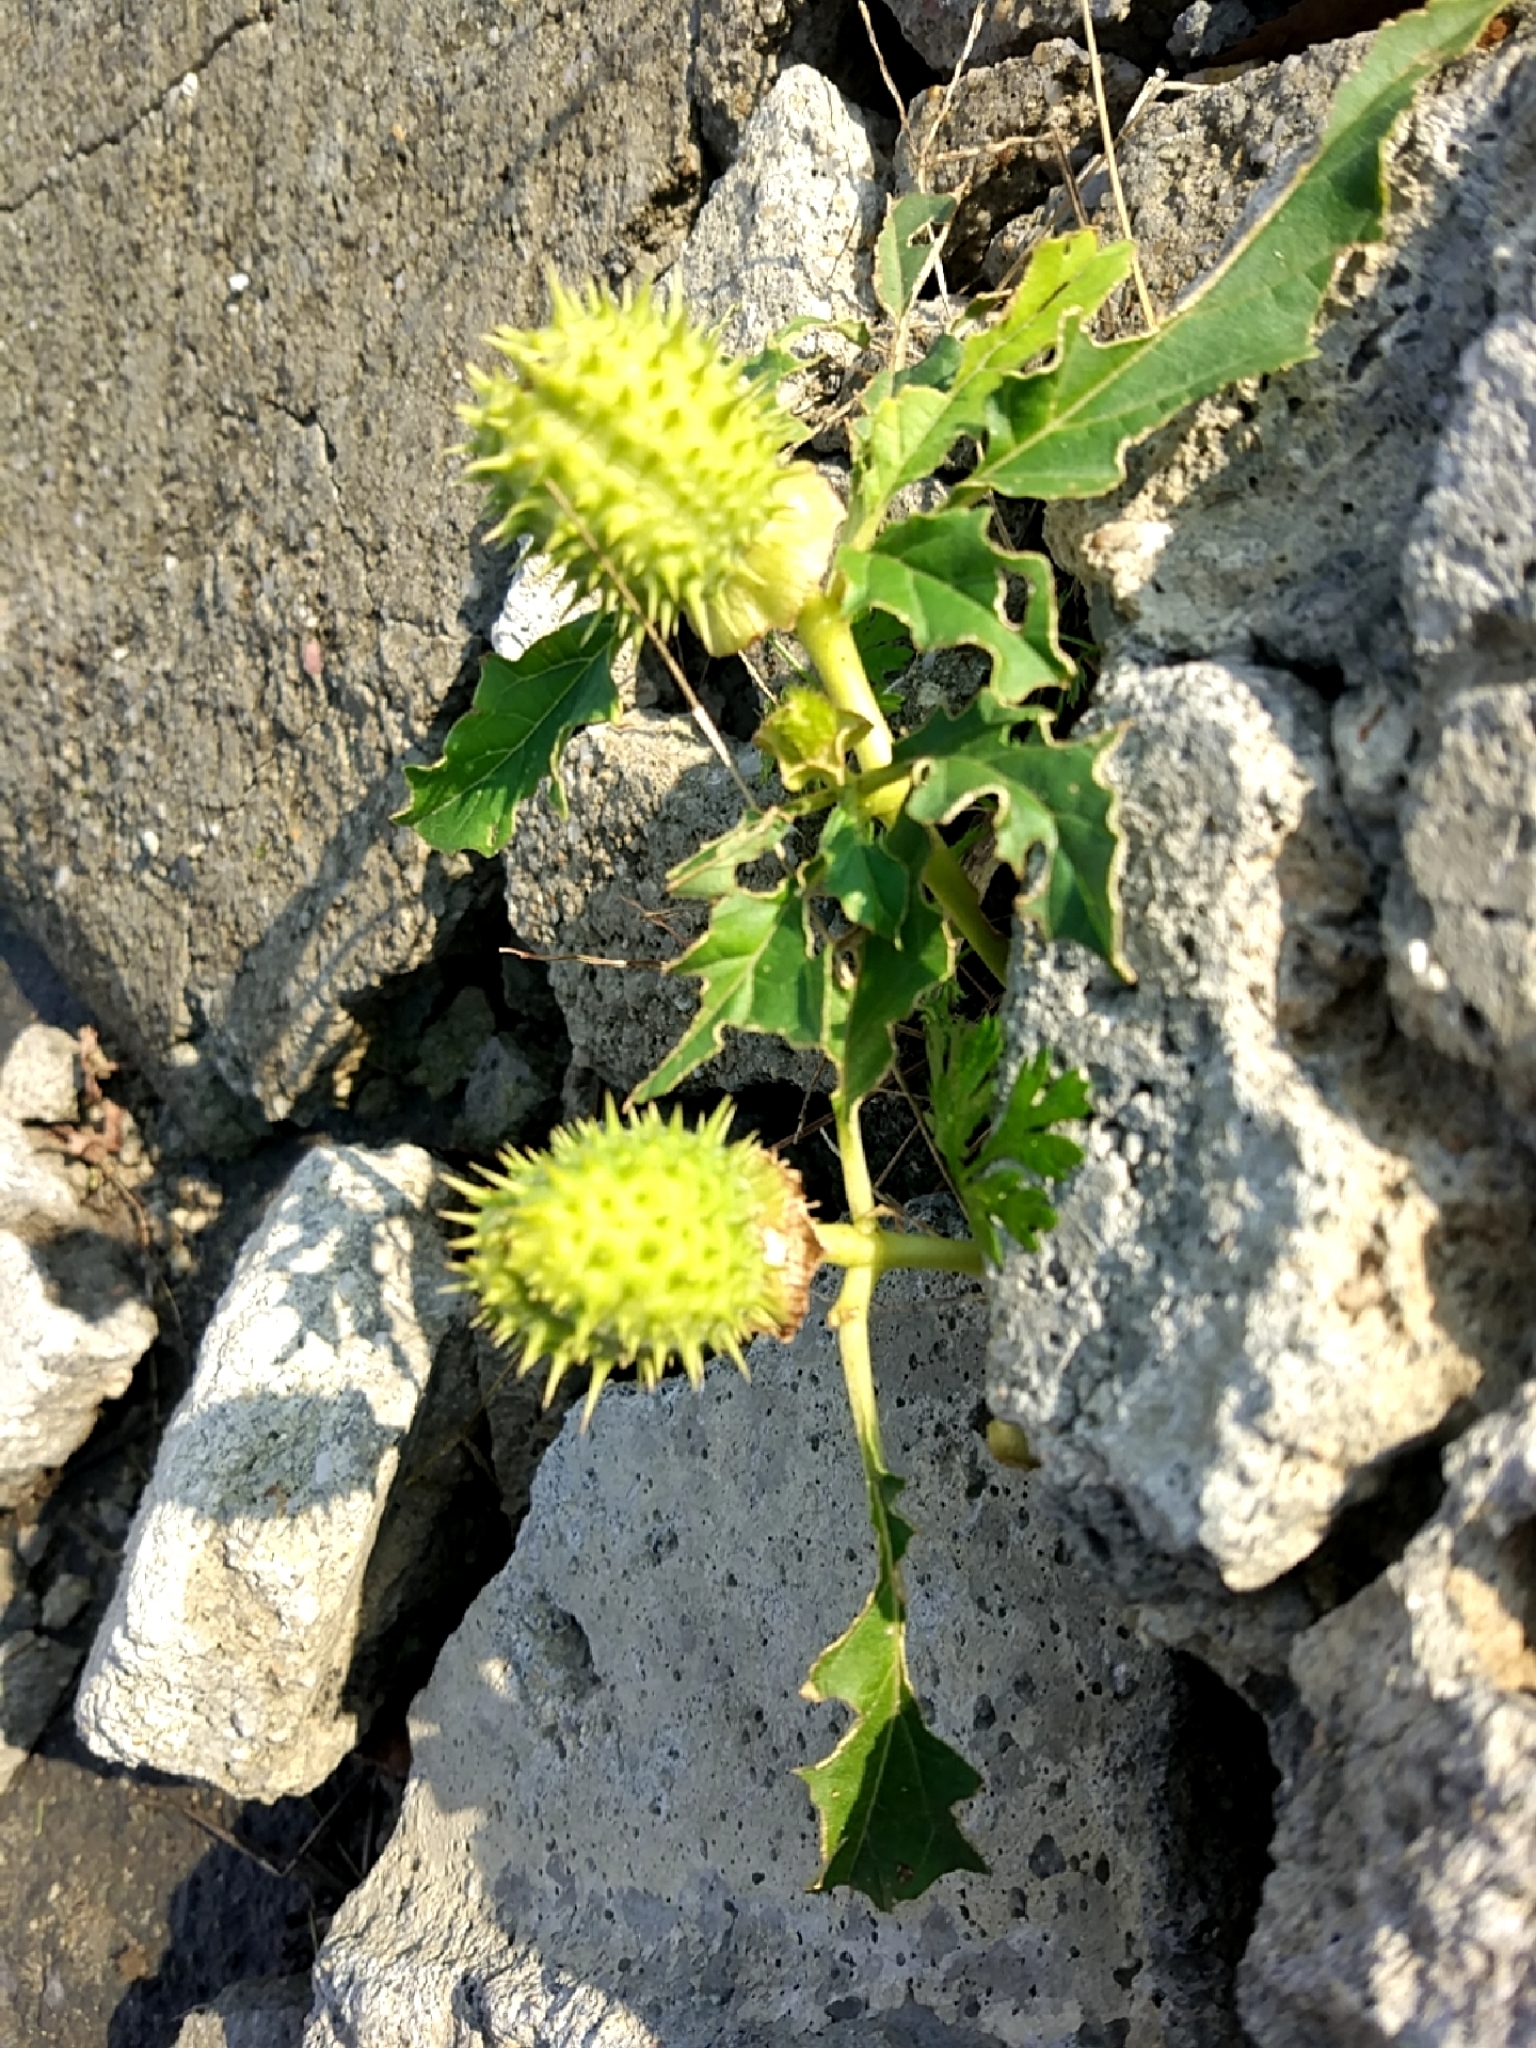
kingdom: Plantae
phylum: Tracheophyta
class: Magnoliopsida
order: Solanales
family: Solanaceae
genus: Datura
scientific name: Datura stramonium
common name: Thorn-apple
